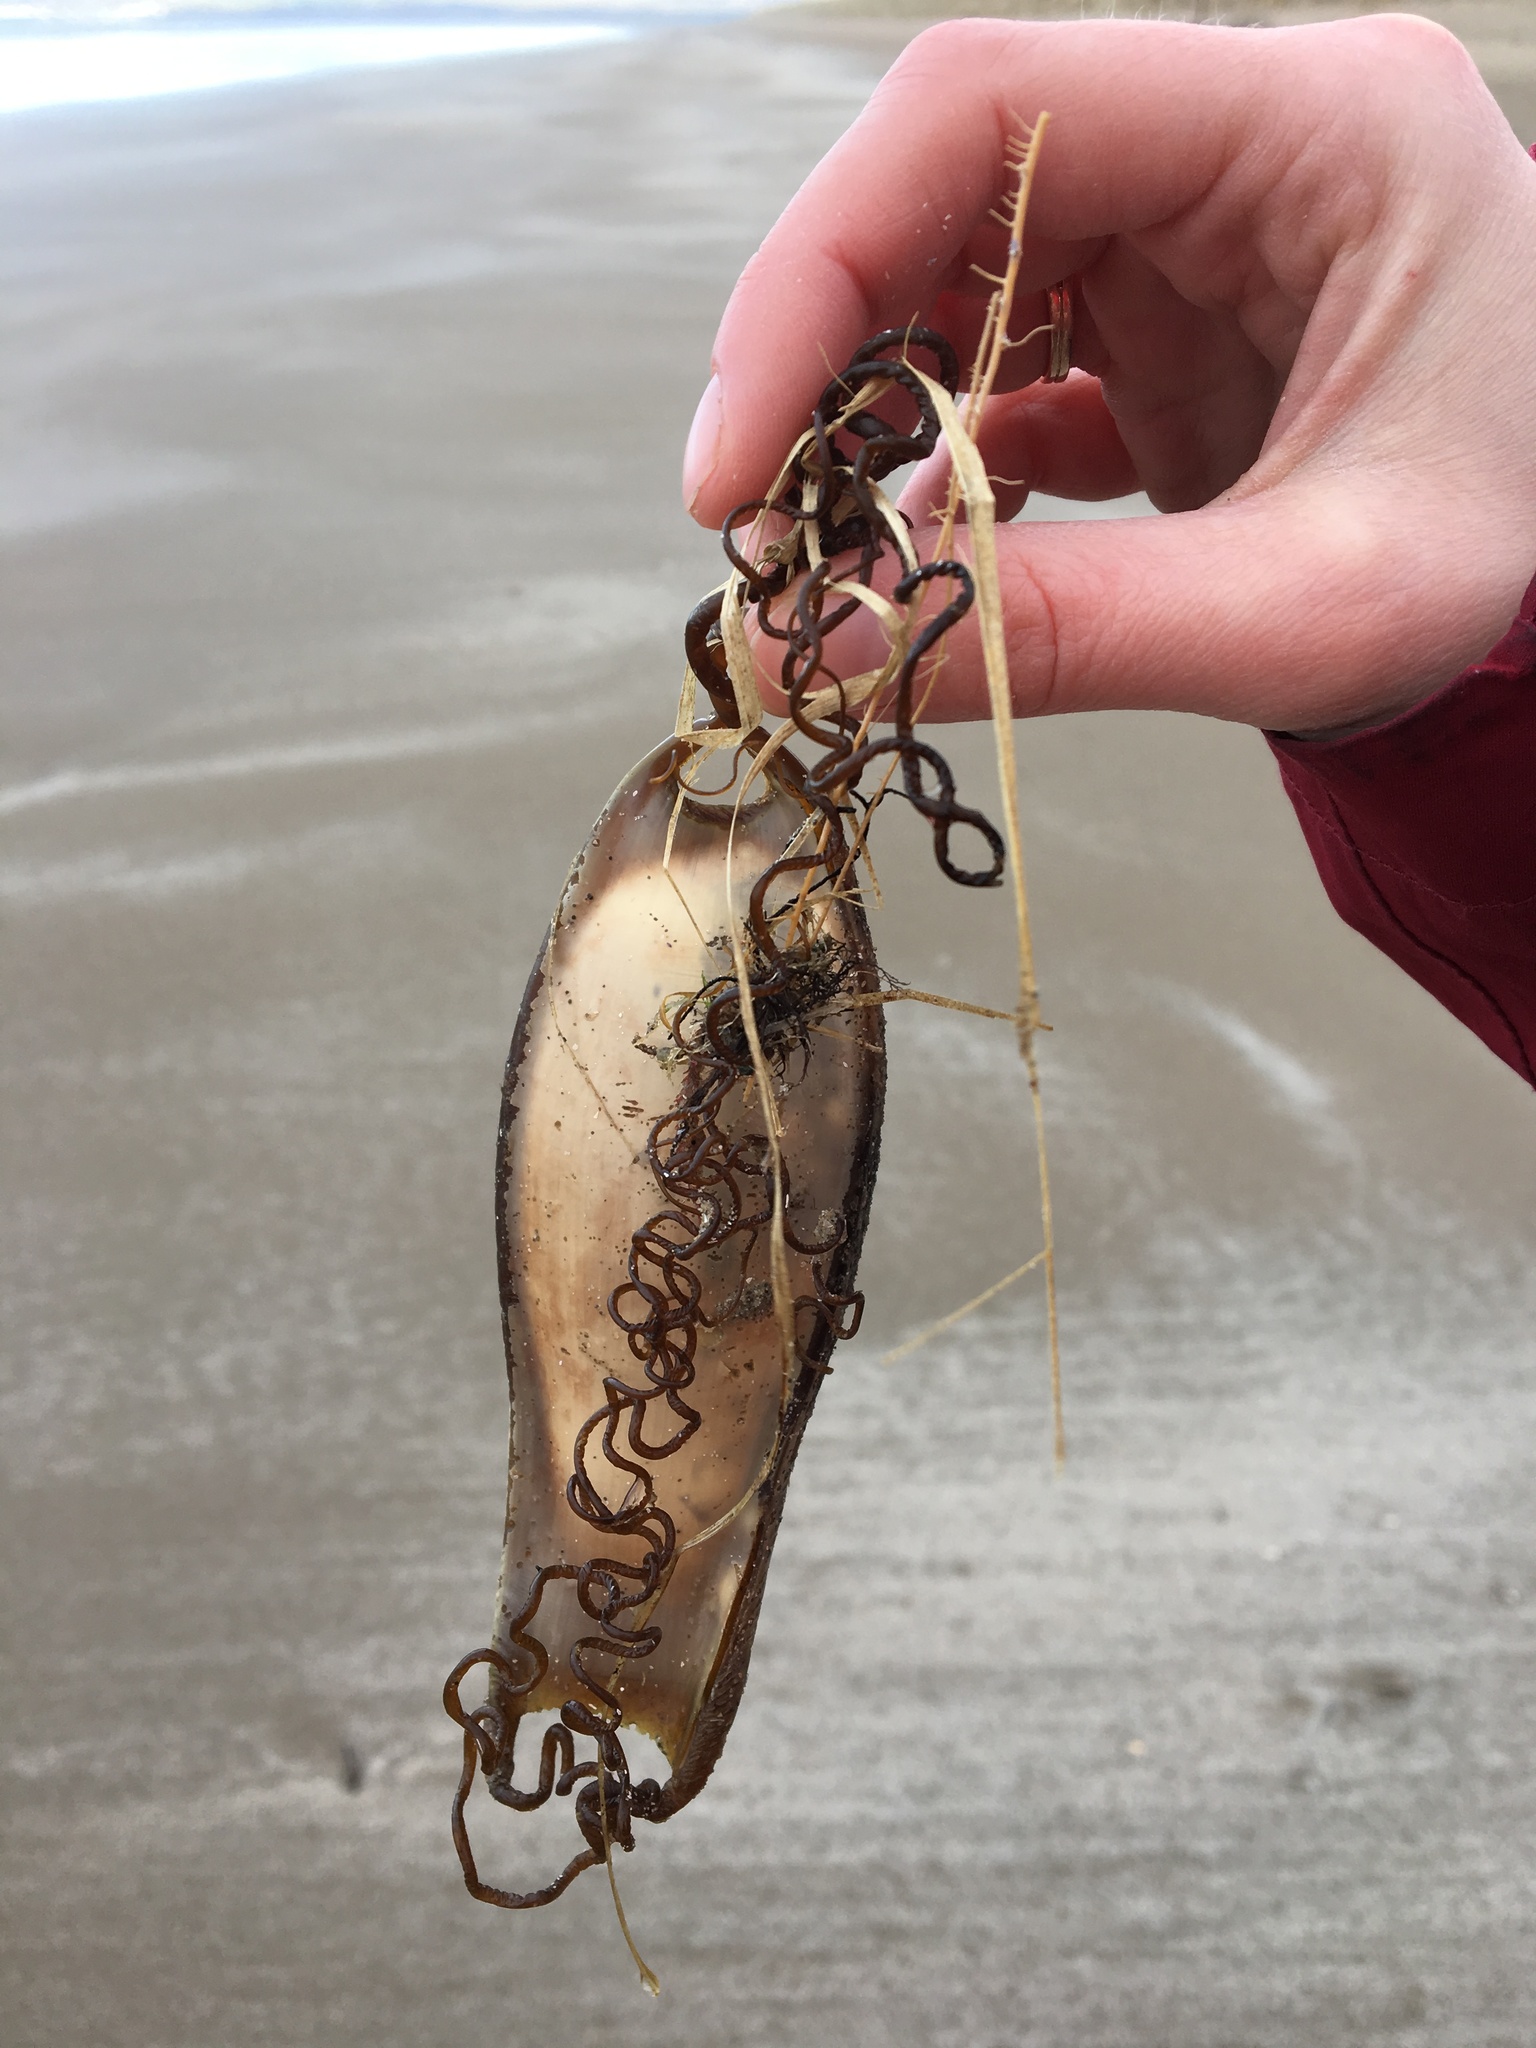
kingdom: Animalia
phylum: Chordata
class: Elasmobranchii
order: Carcharhiniformes
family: Scyliorhinidae
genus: Scyliorhinus
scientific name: Scyliorhinus stellaris
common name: Nursehound
